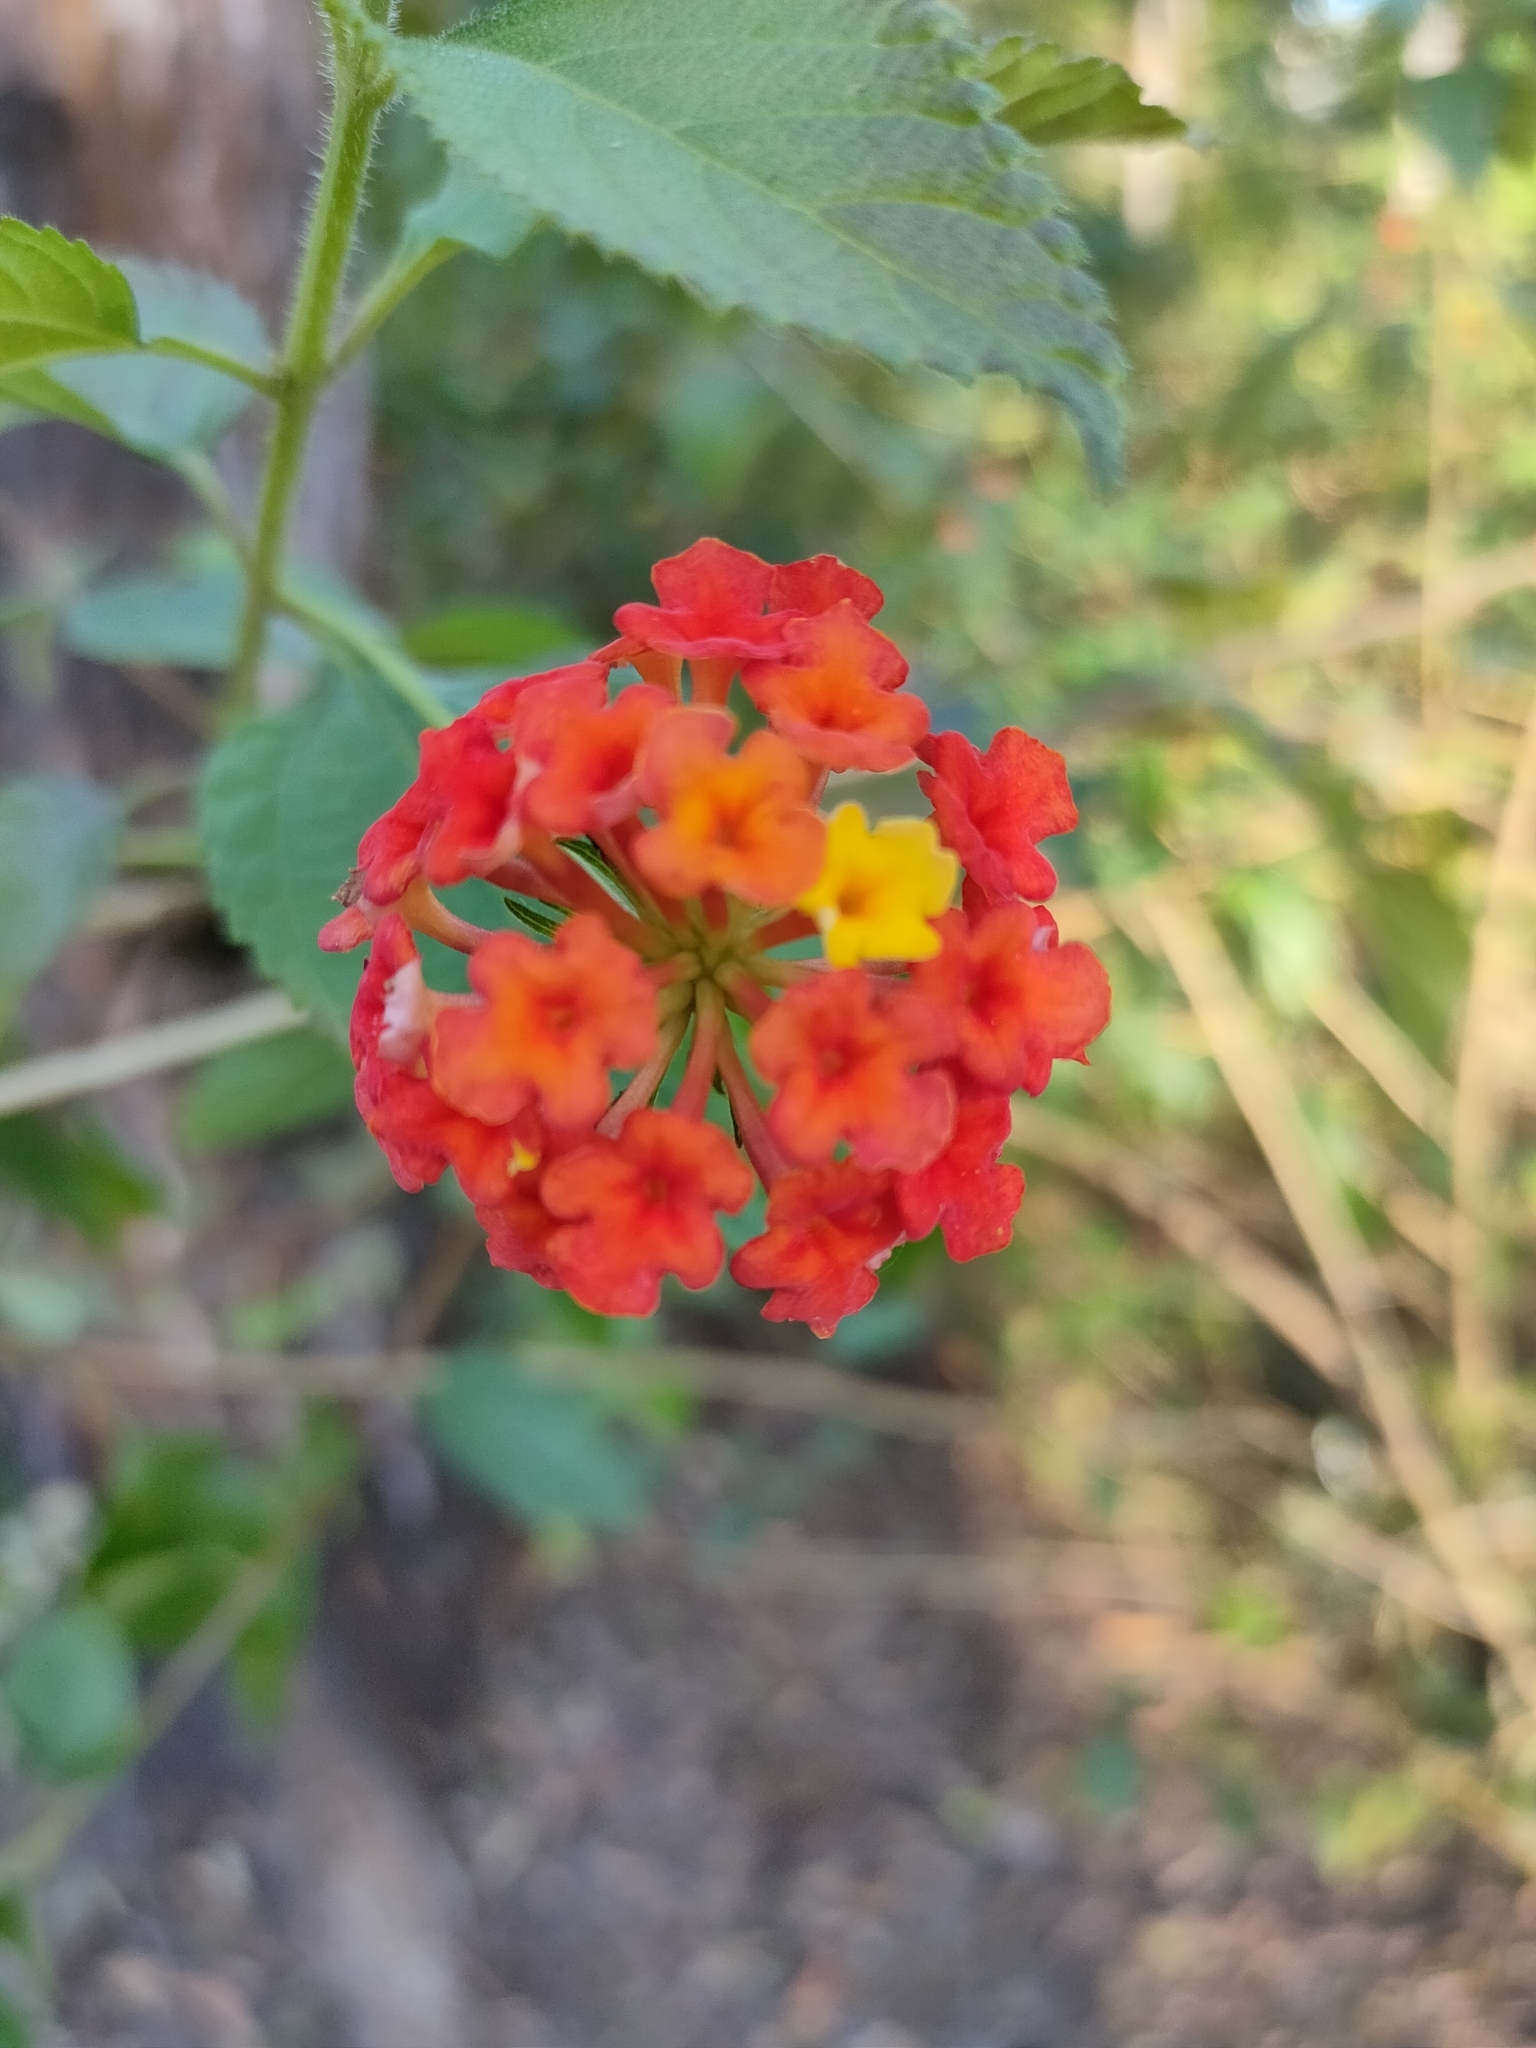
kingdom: Plantae
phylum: Tracheophyta
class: Magnoliopsida
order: Lamiales
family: Verbenaceae
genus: Lantana
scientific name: Lantana camara
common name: Lantana
